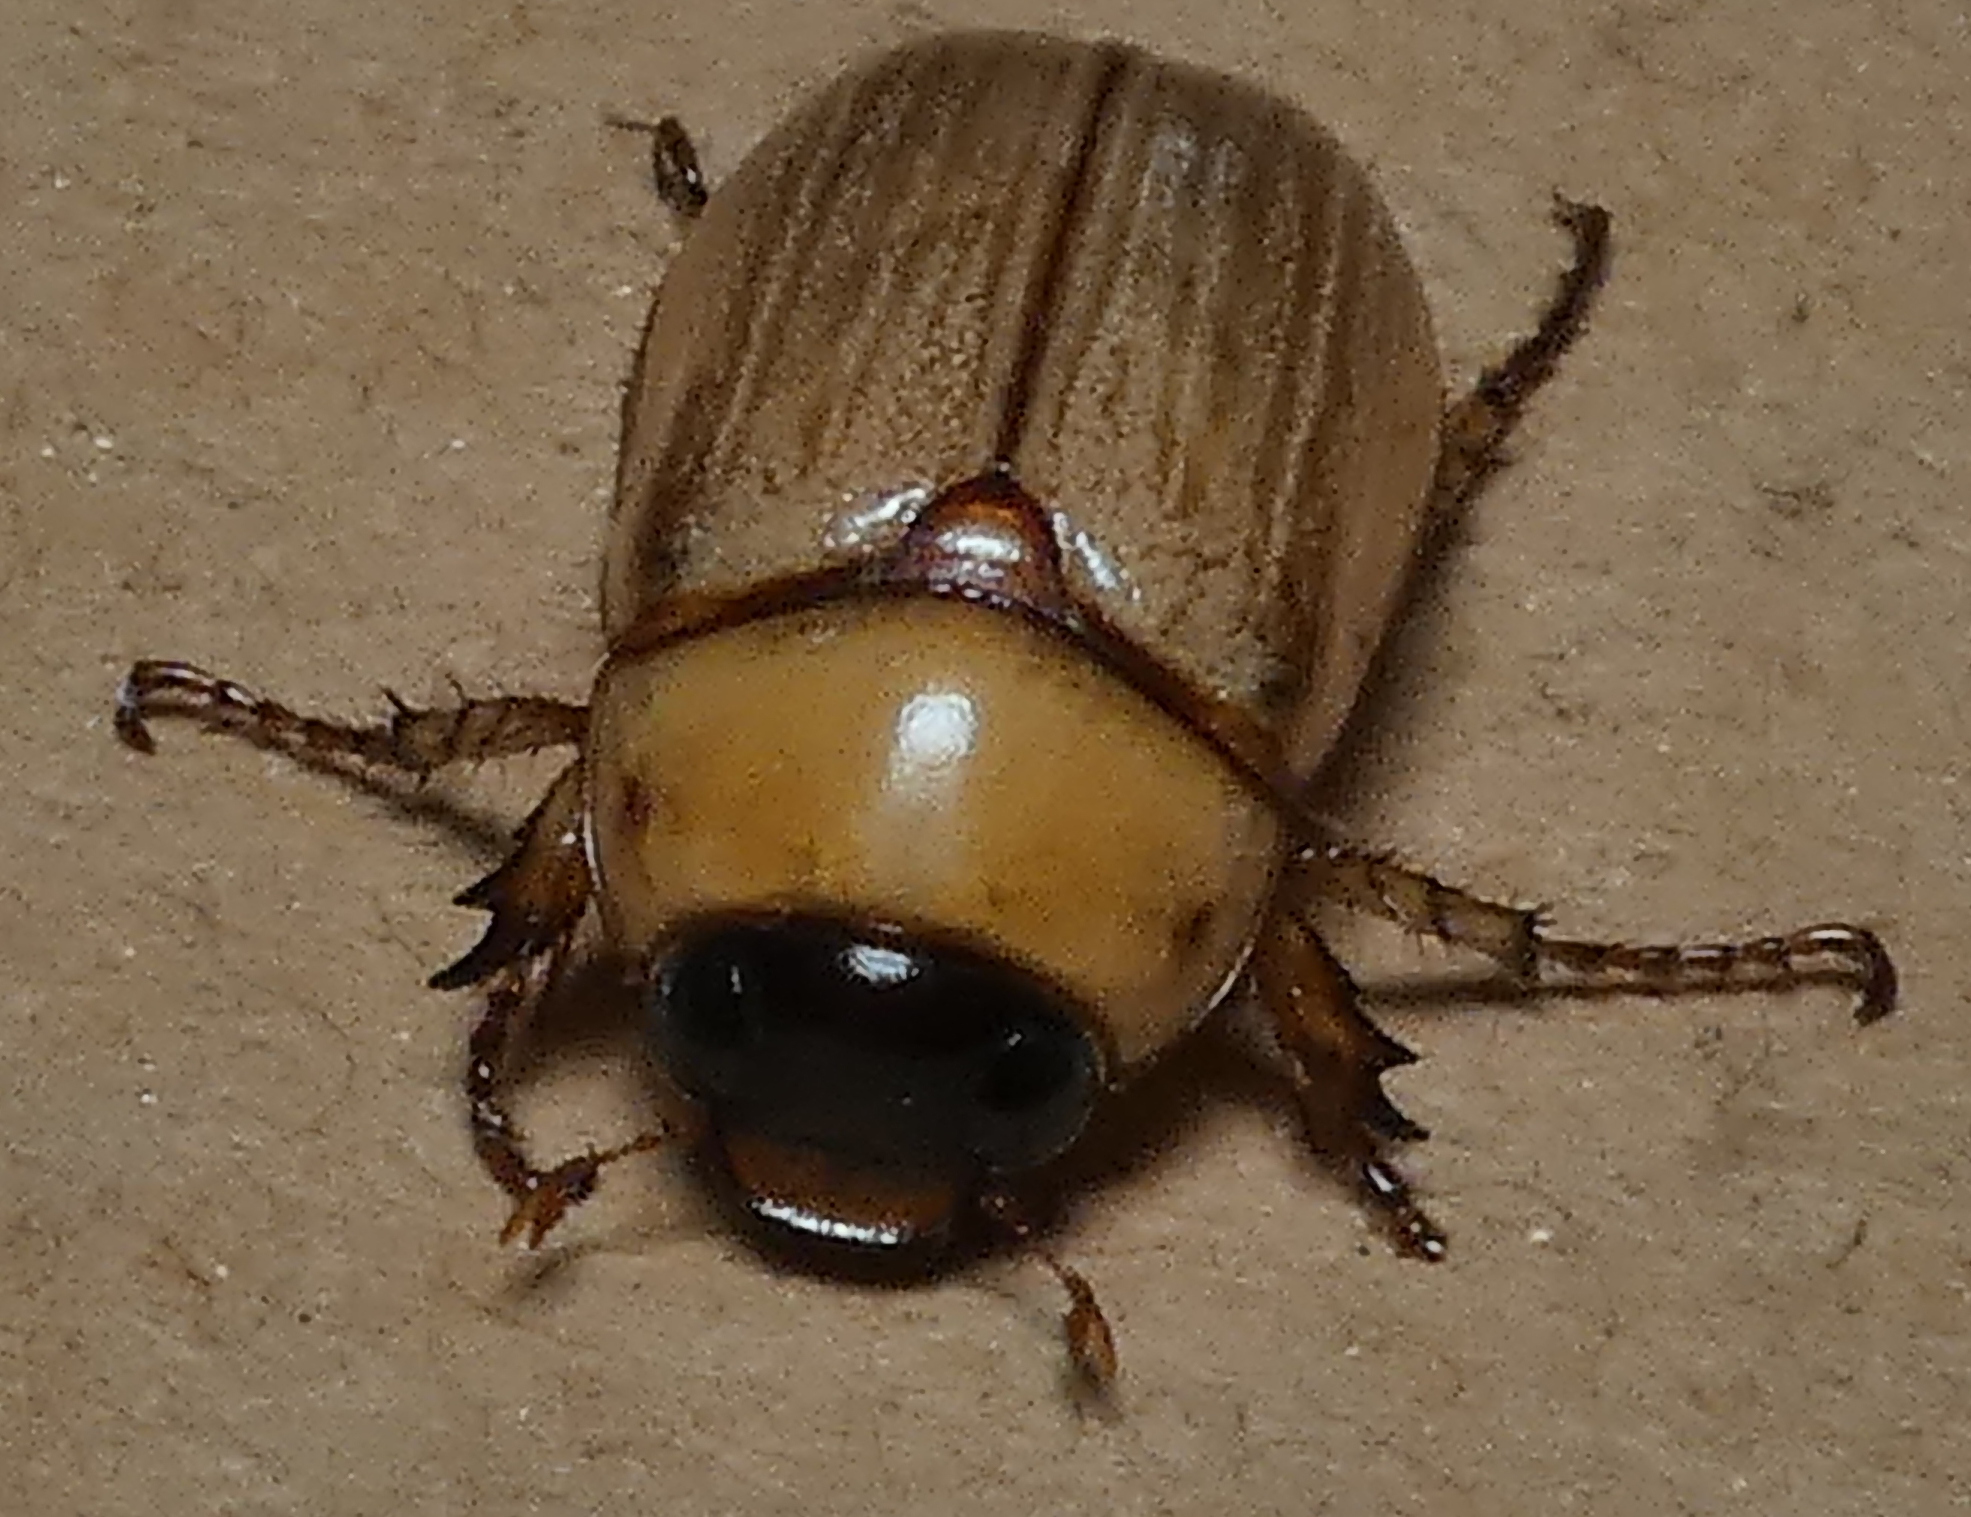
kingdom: Animalia
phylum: Arthropoda
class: Insecta
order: Coleoptera
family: Scarabaeidae
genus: Geniates
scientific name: Geniates barbatus
